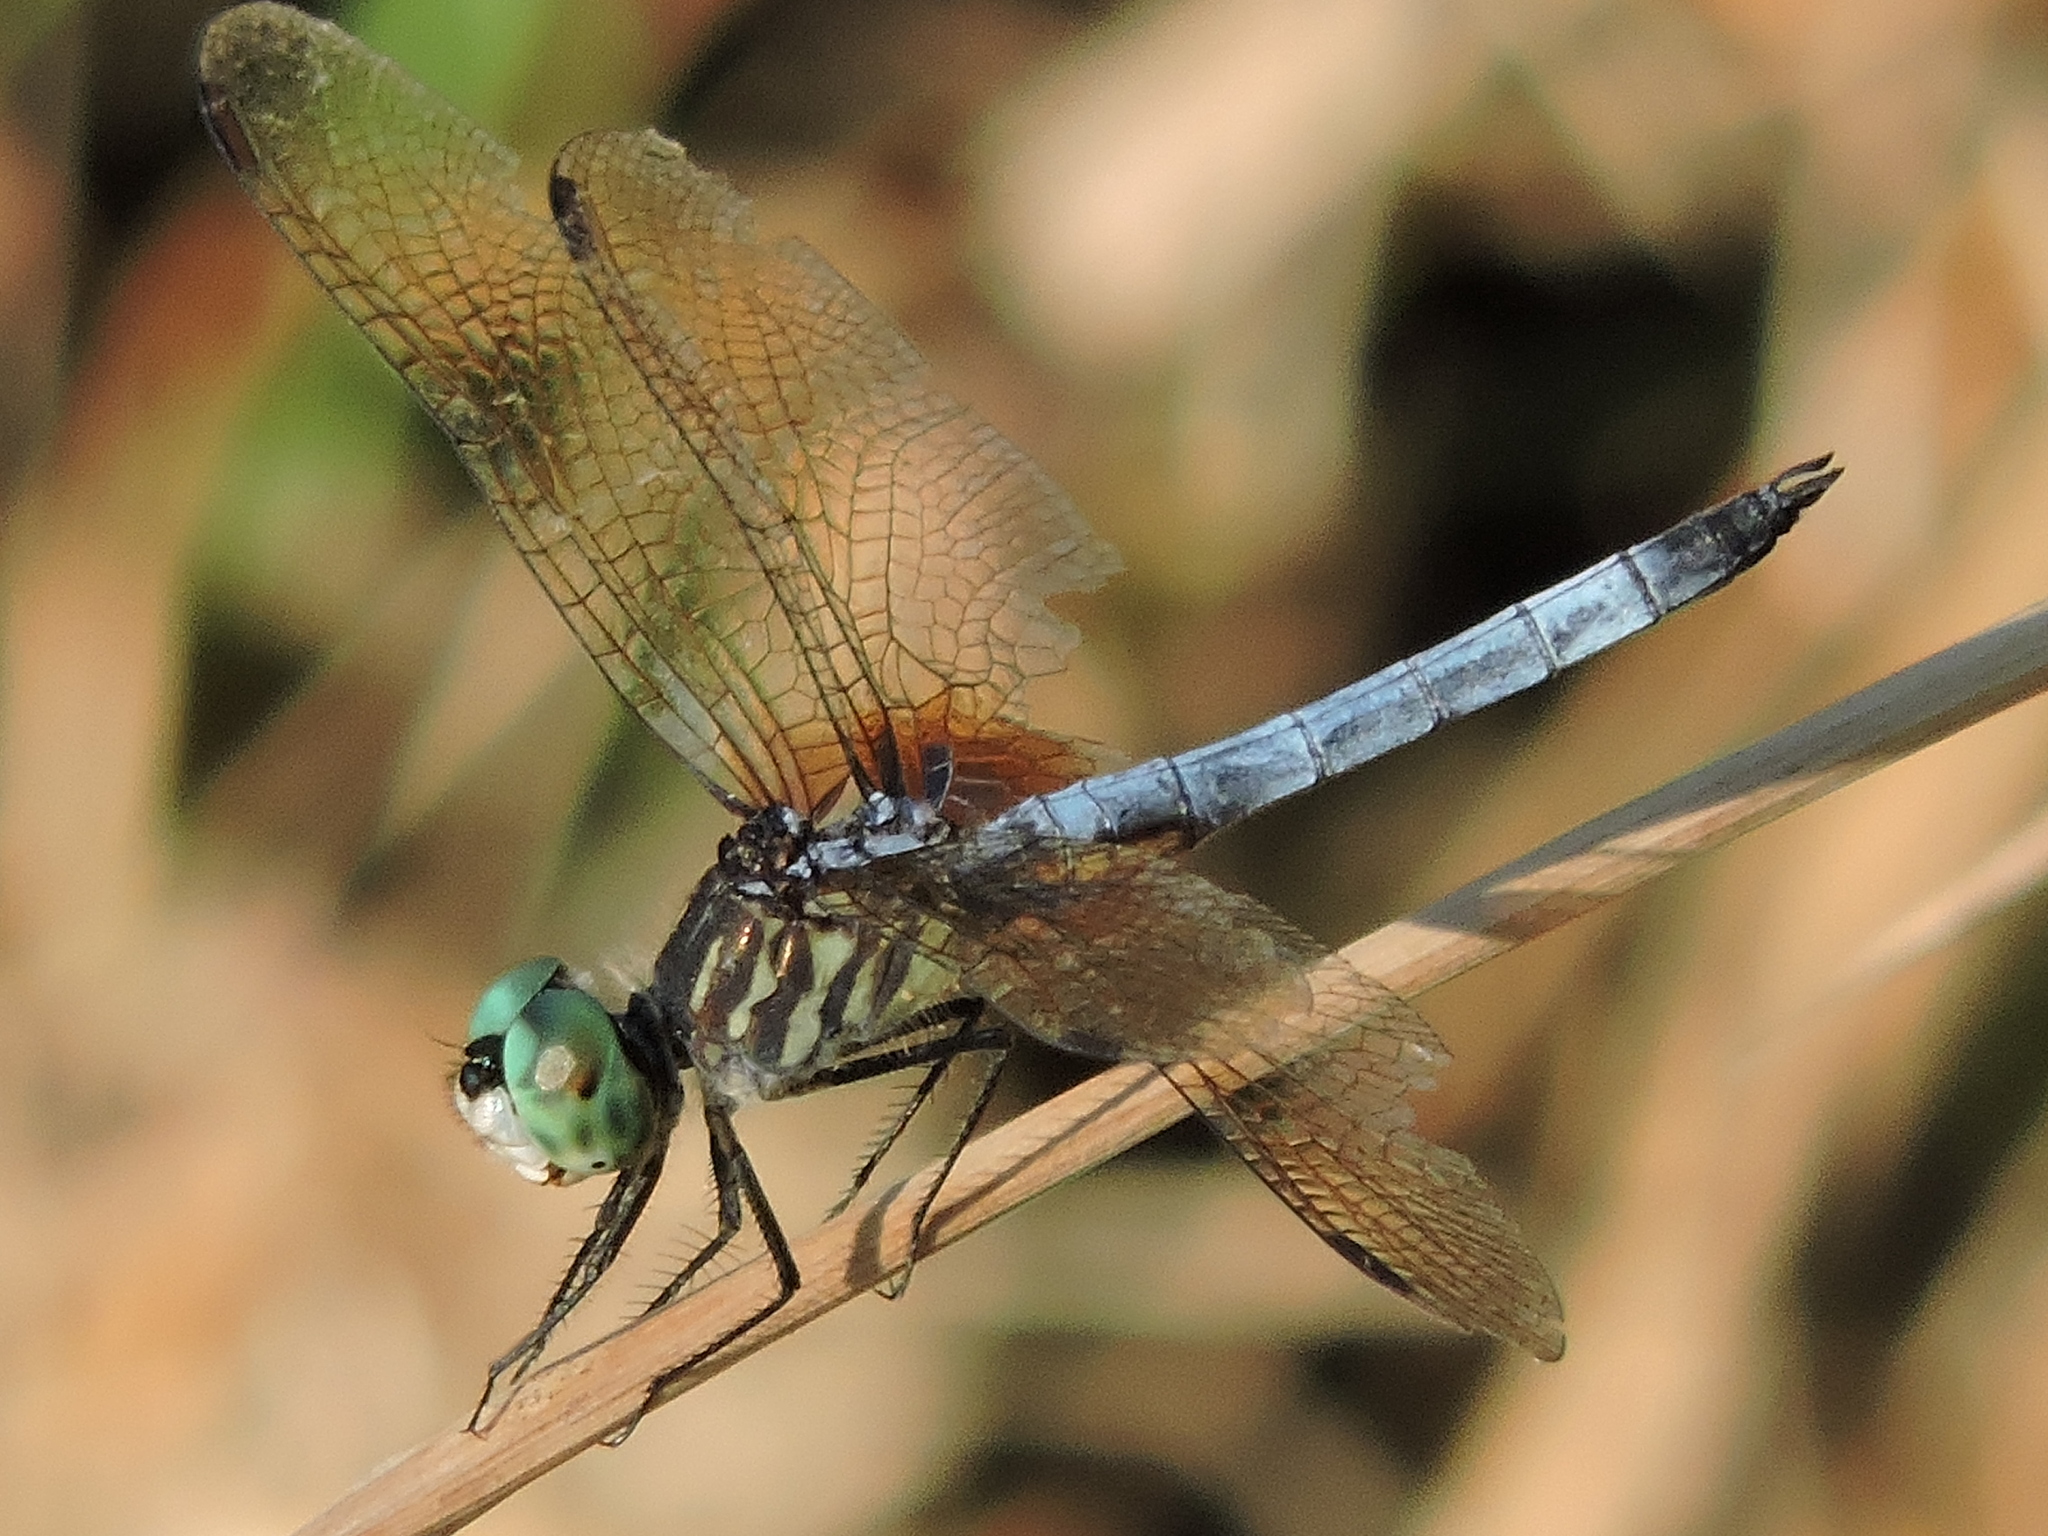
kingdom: Animalia
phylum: Arthropoda
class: Insecta
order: Odonata
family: Libellulidae
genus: Pachydiplax
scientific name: Pachydiplax longipennis
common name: Blue dasher
